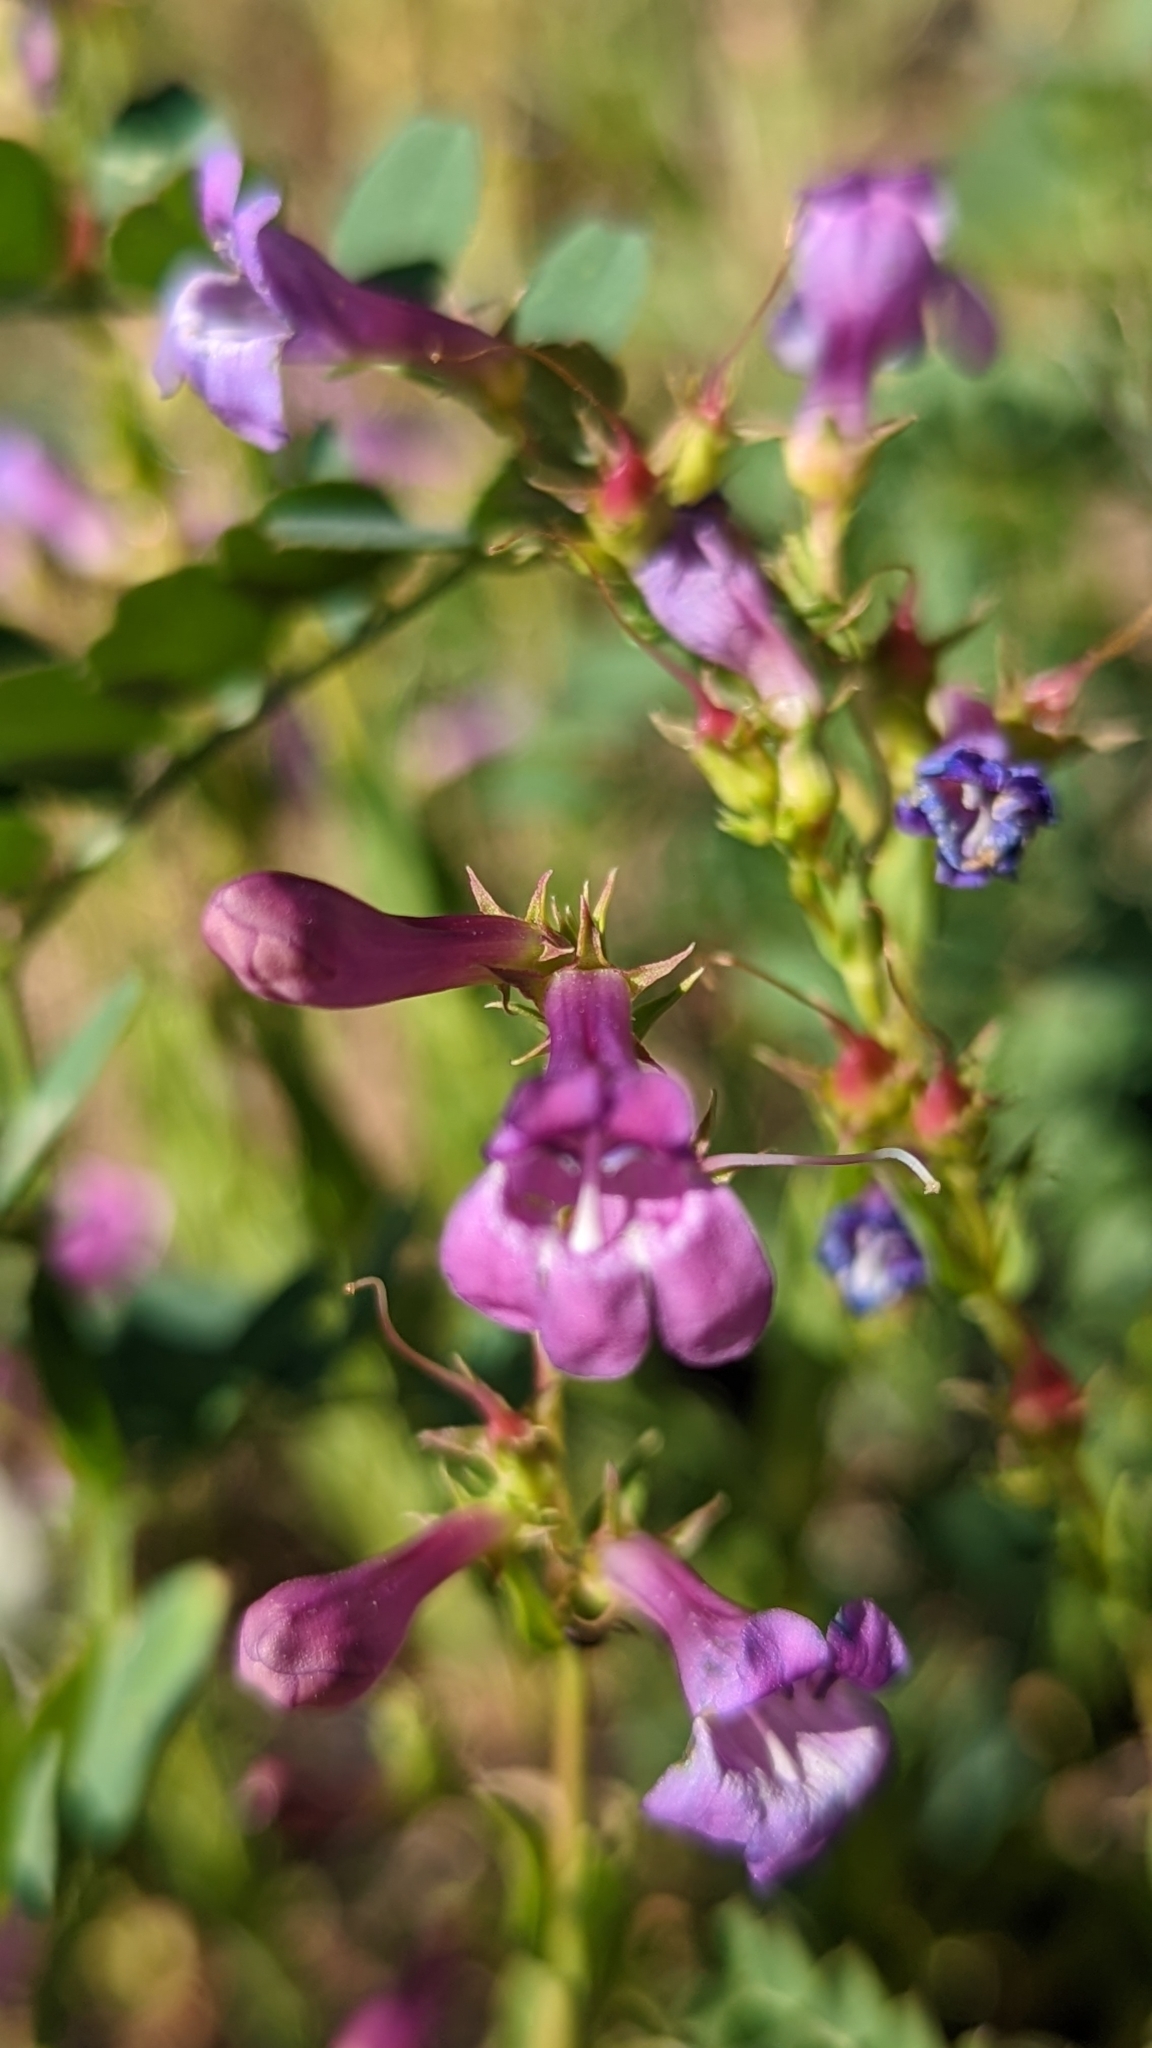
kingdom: Plantae
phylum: Tracheophyta
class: Magnoliopsida
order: Lamiales
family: Plantaginaceae
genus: Penstemon
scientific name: Penstemon leonardii
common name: Leonard's penstemon
